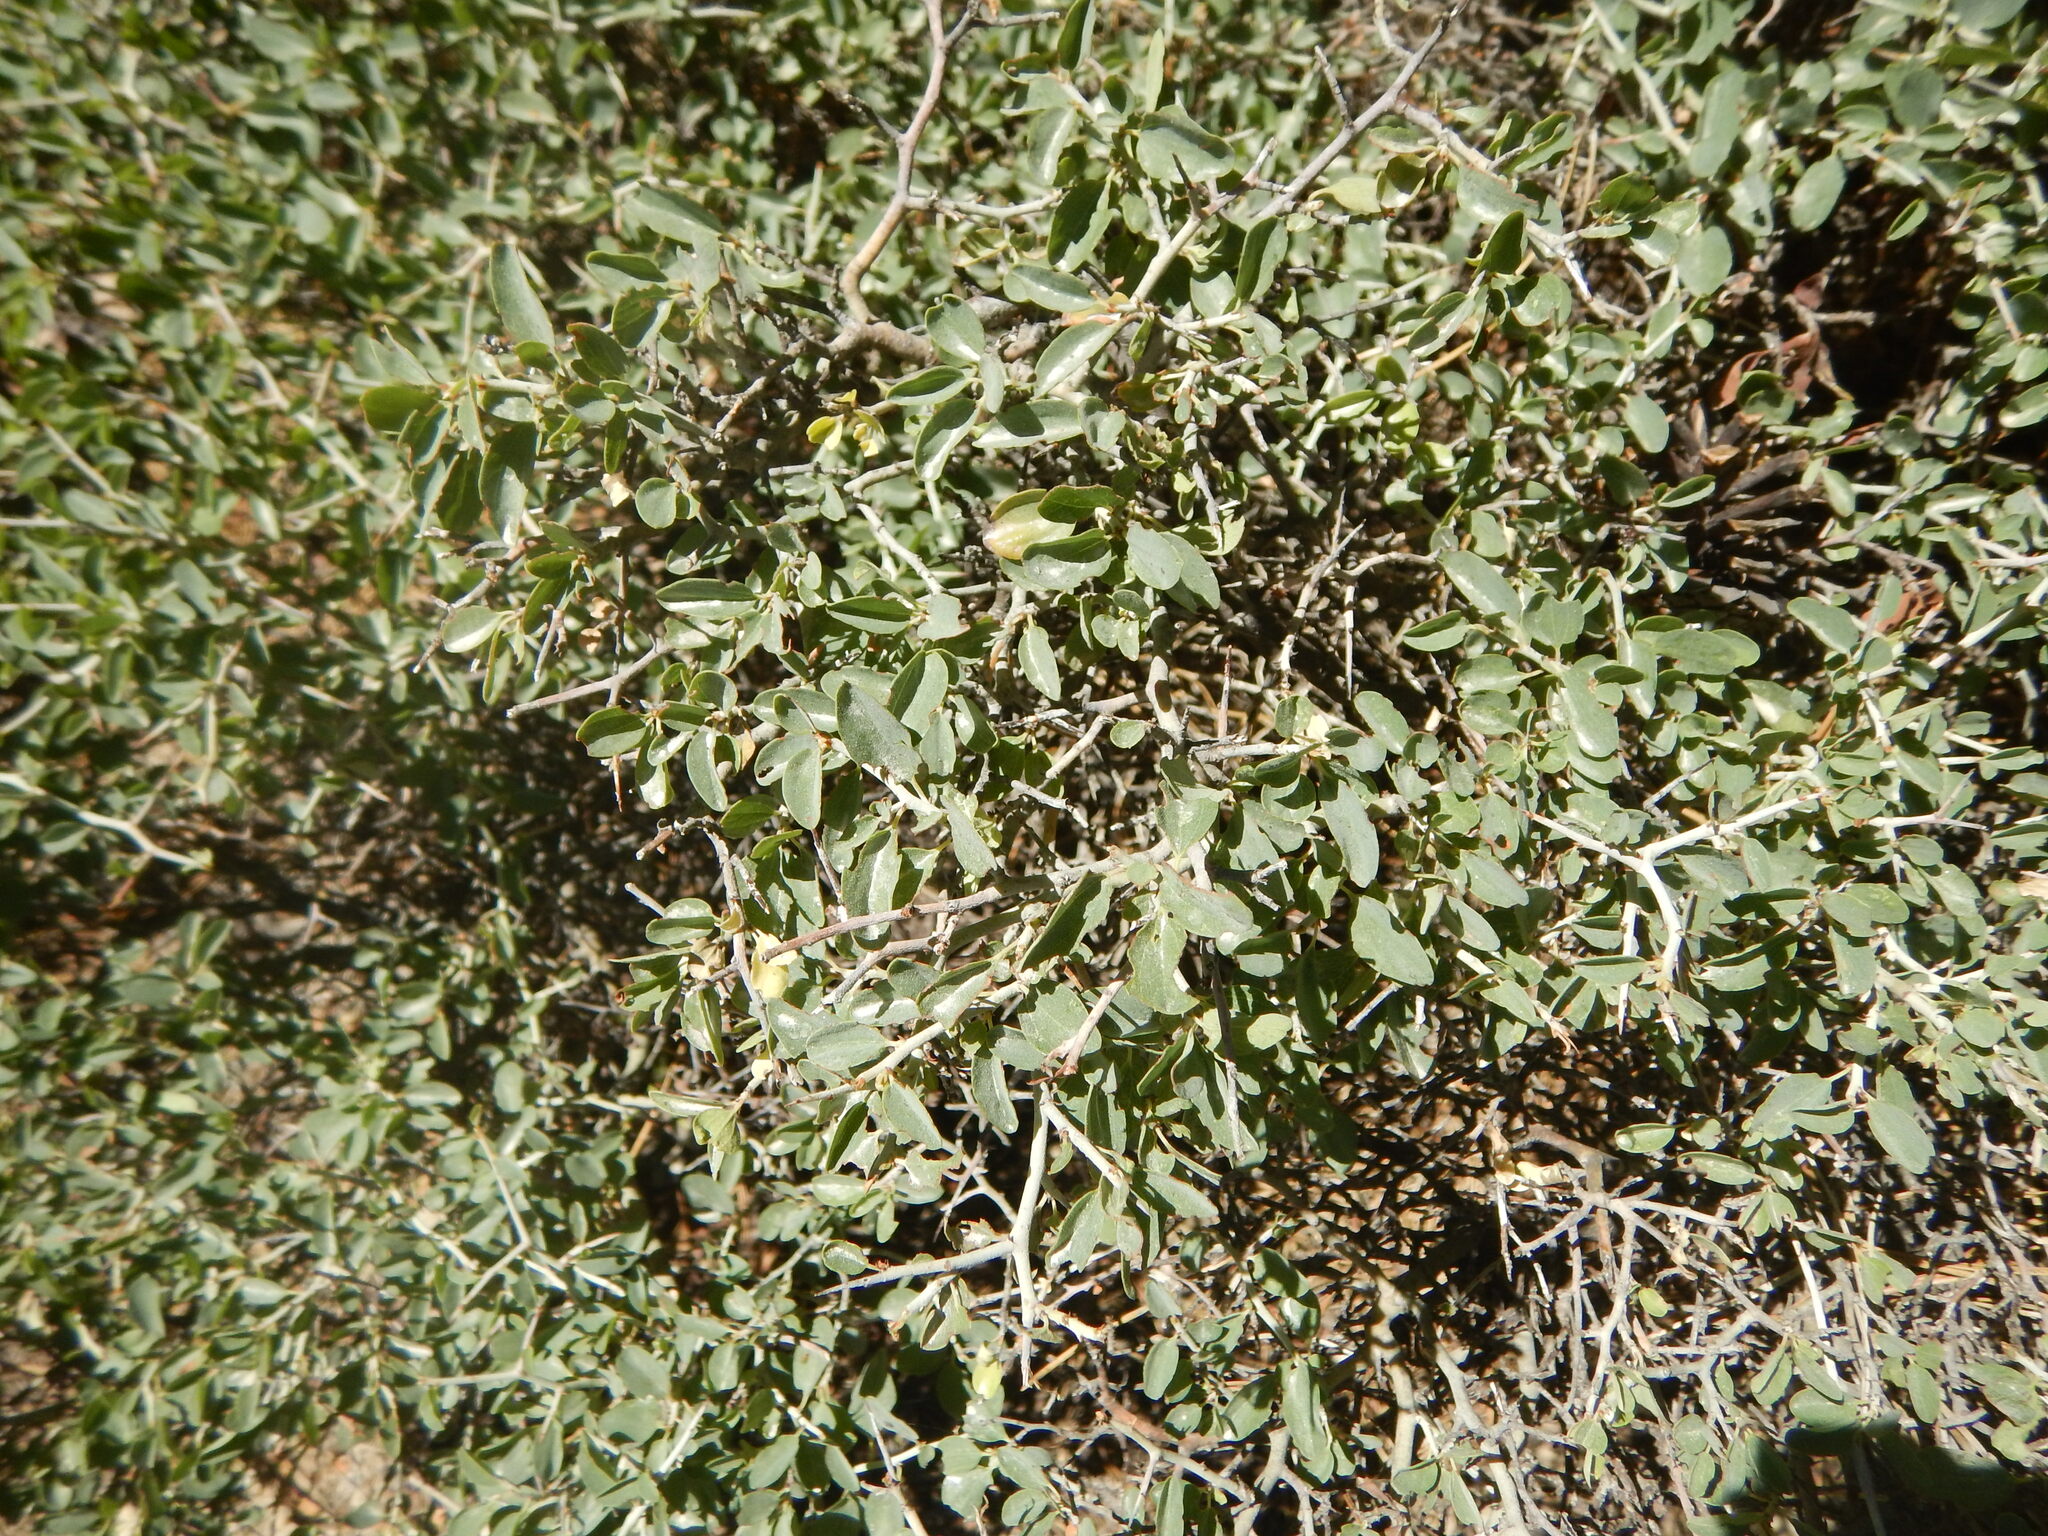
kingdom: Plantae
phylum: Tracheophyta
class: Magnoliopsida
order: Rosales
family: Rhamnaceae
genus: Ceanothus
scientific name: Ceanothus cordulatus
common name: Mountain whitethorn
